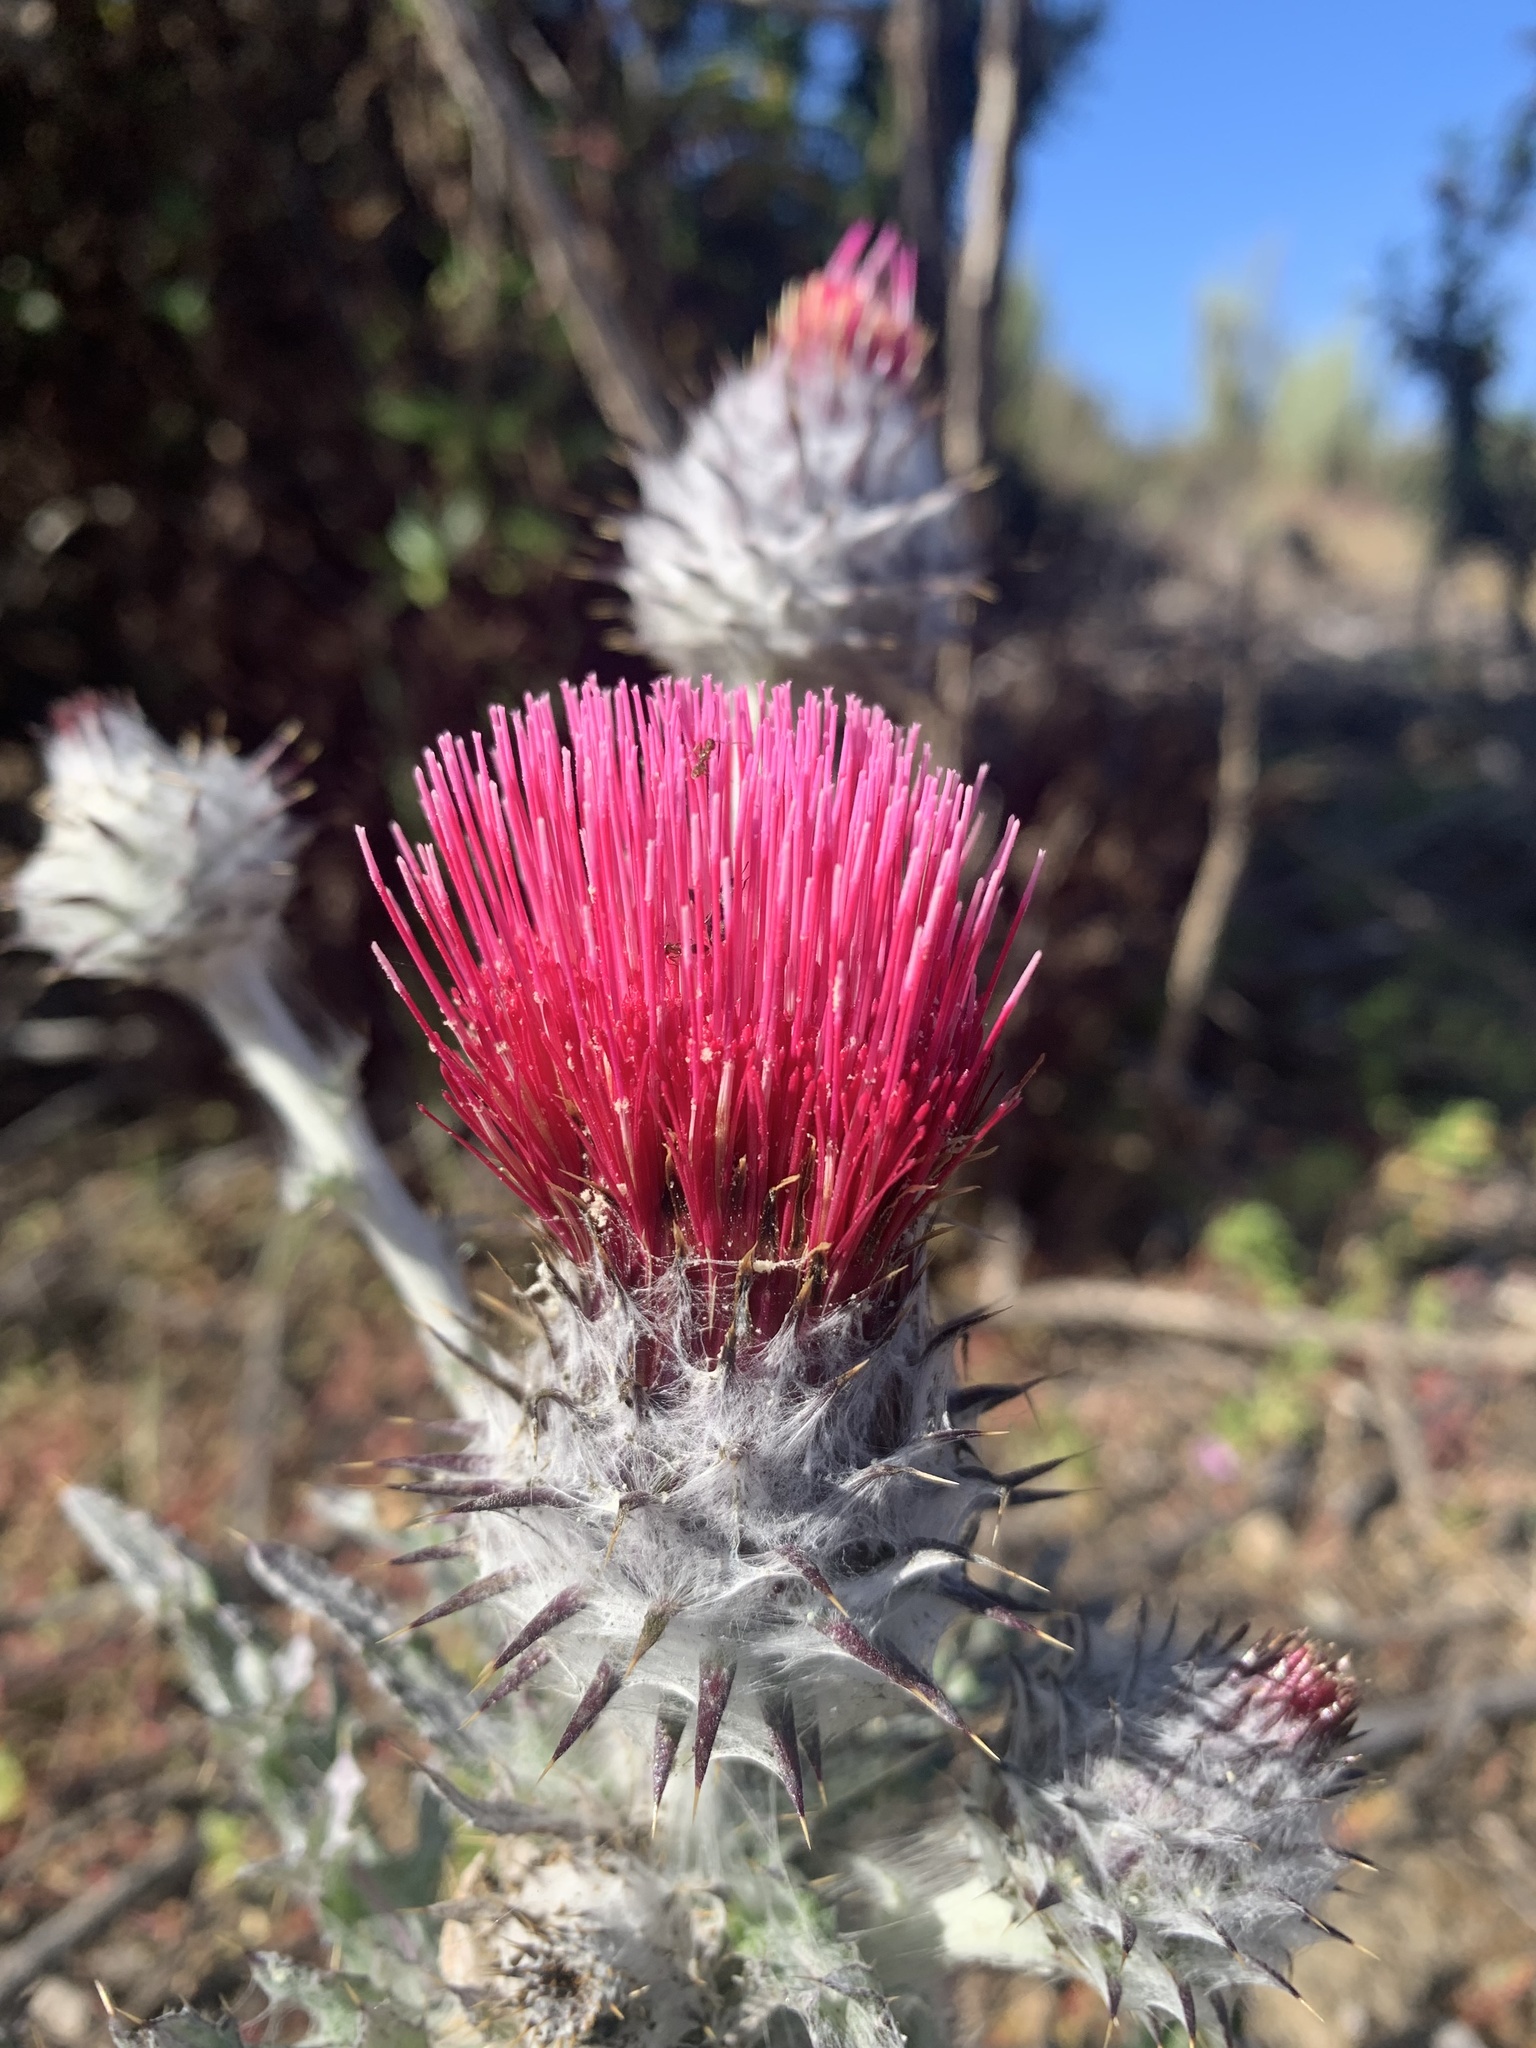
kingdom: Plantae
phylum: Tracheophyta
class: Magnoliopsida
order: Asterales
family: Asteraceae
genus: Cirsium
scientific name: Cirsium occidentale
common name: Western thistle
